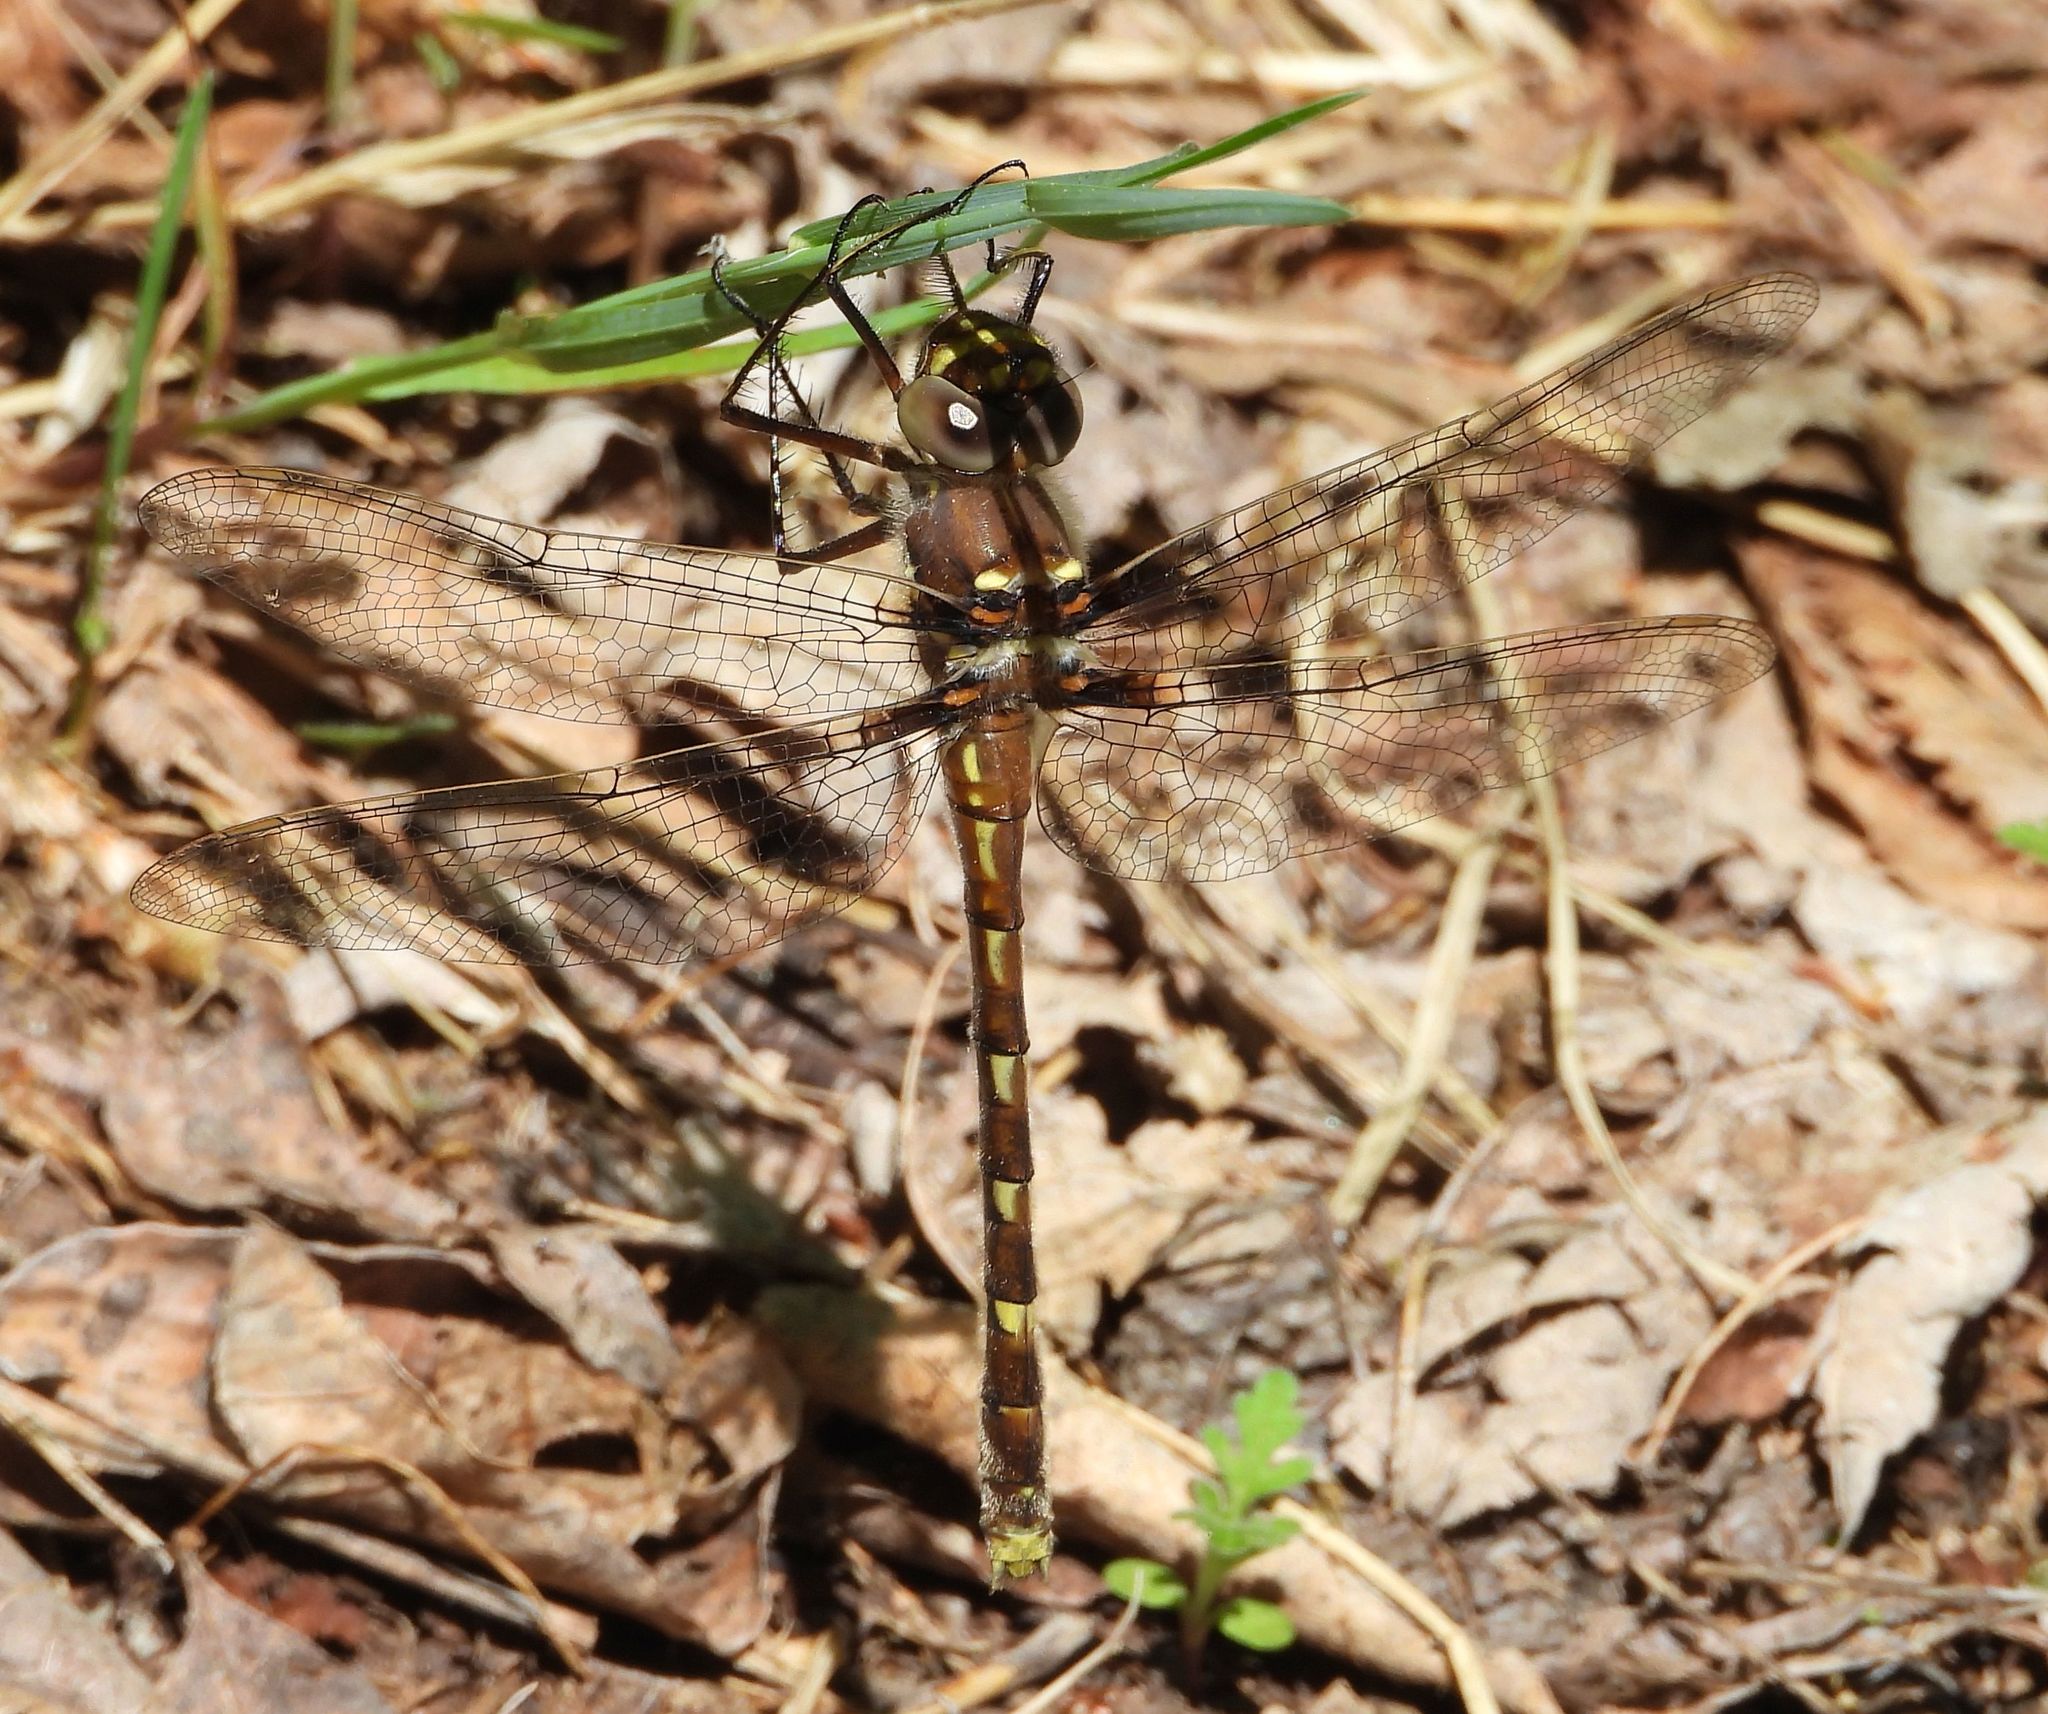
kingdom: Animalia
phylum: Arthropoda
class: Insecta
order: Odonata
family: Macromiidae
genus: Didymops
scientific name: Didymops transversa
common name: Stream cruiser
